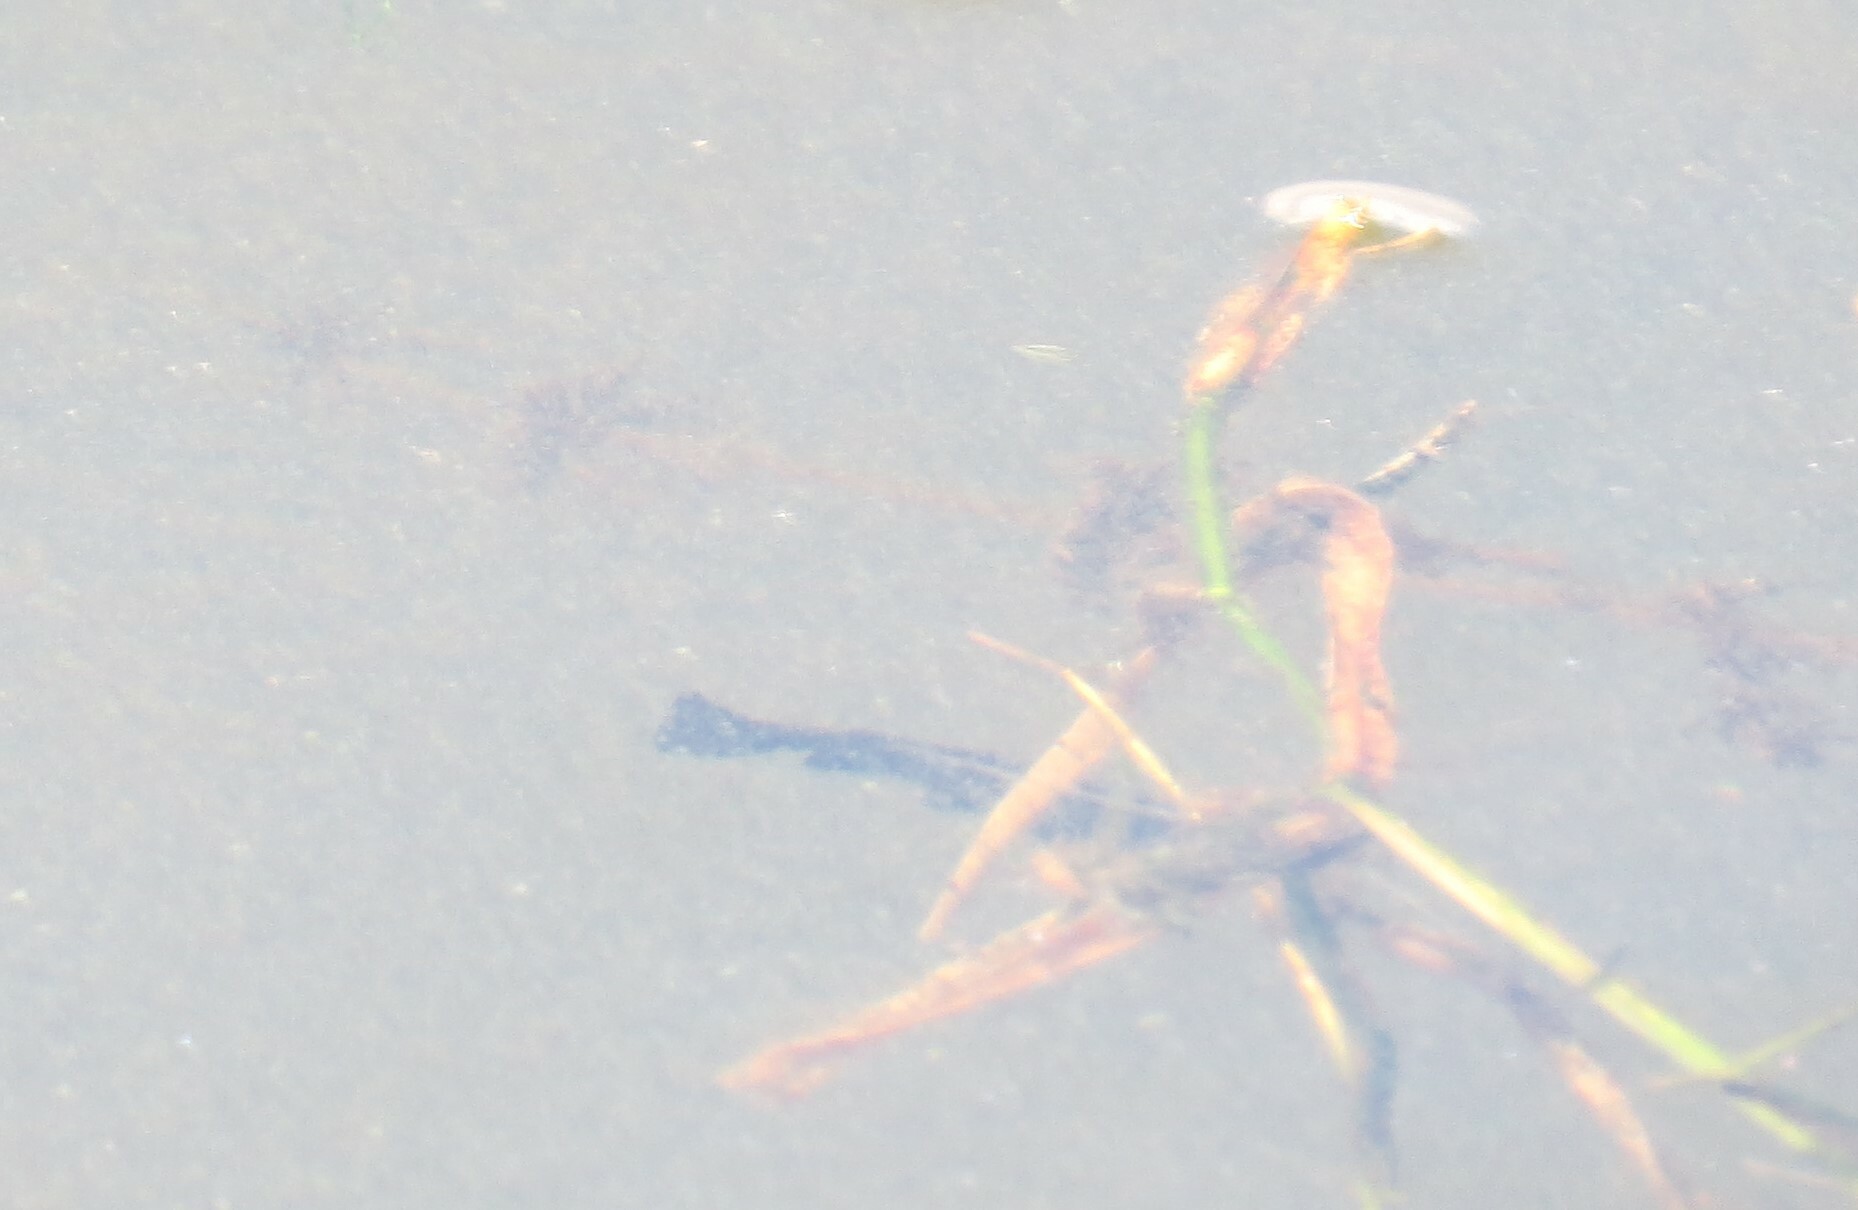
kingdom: Animalia
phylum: Chordata
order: Siluriformes
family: Ictaluridae
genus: Ameiurus
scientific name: Ameiurus
